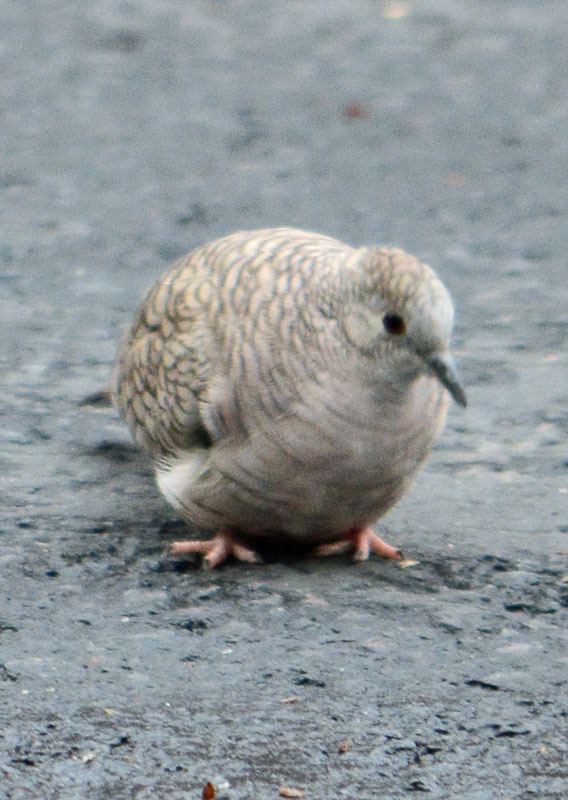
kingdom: Animalia
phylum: Chordata
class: Aves
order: Columbiformes
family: Columbidae
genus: Columbina
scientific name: Columbina inca
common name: Inca dove
